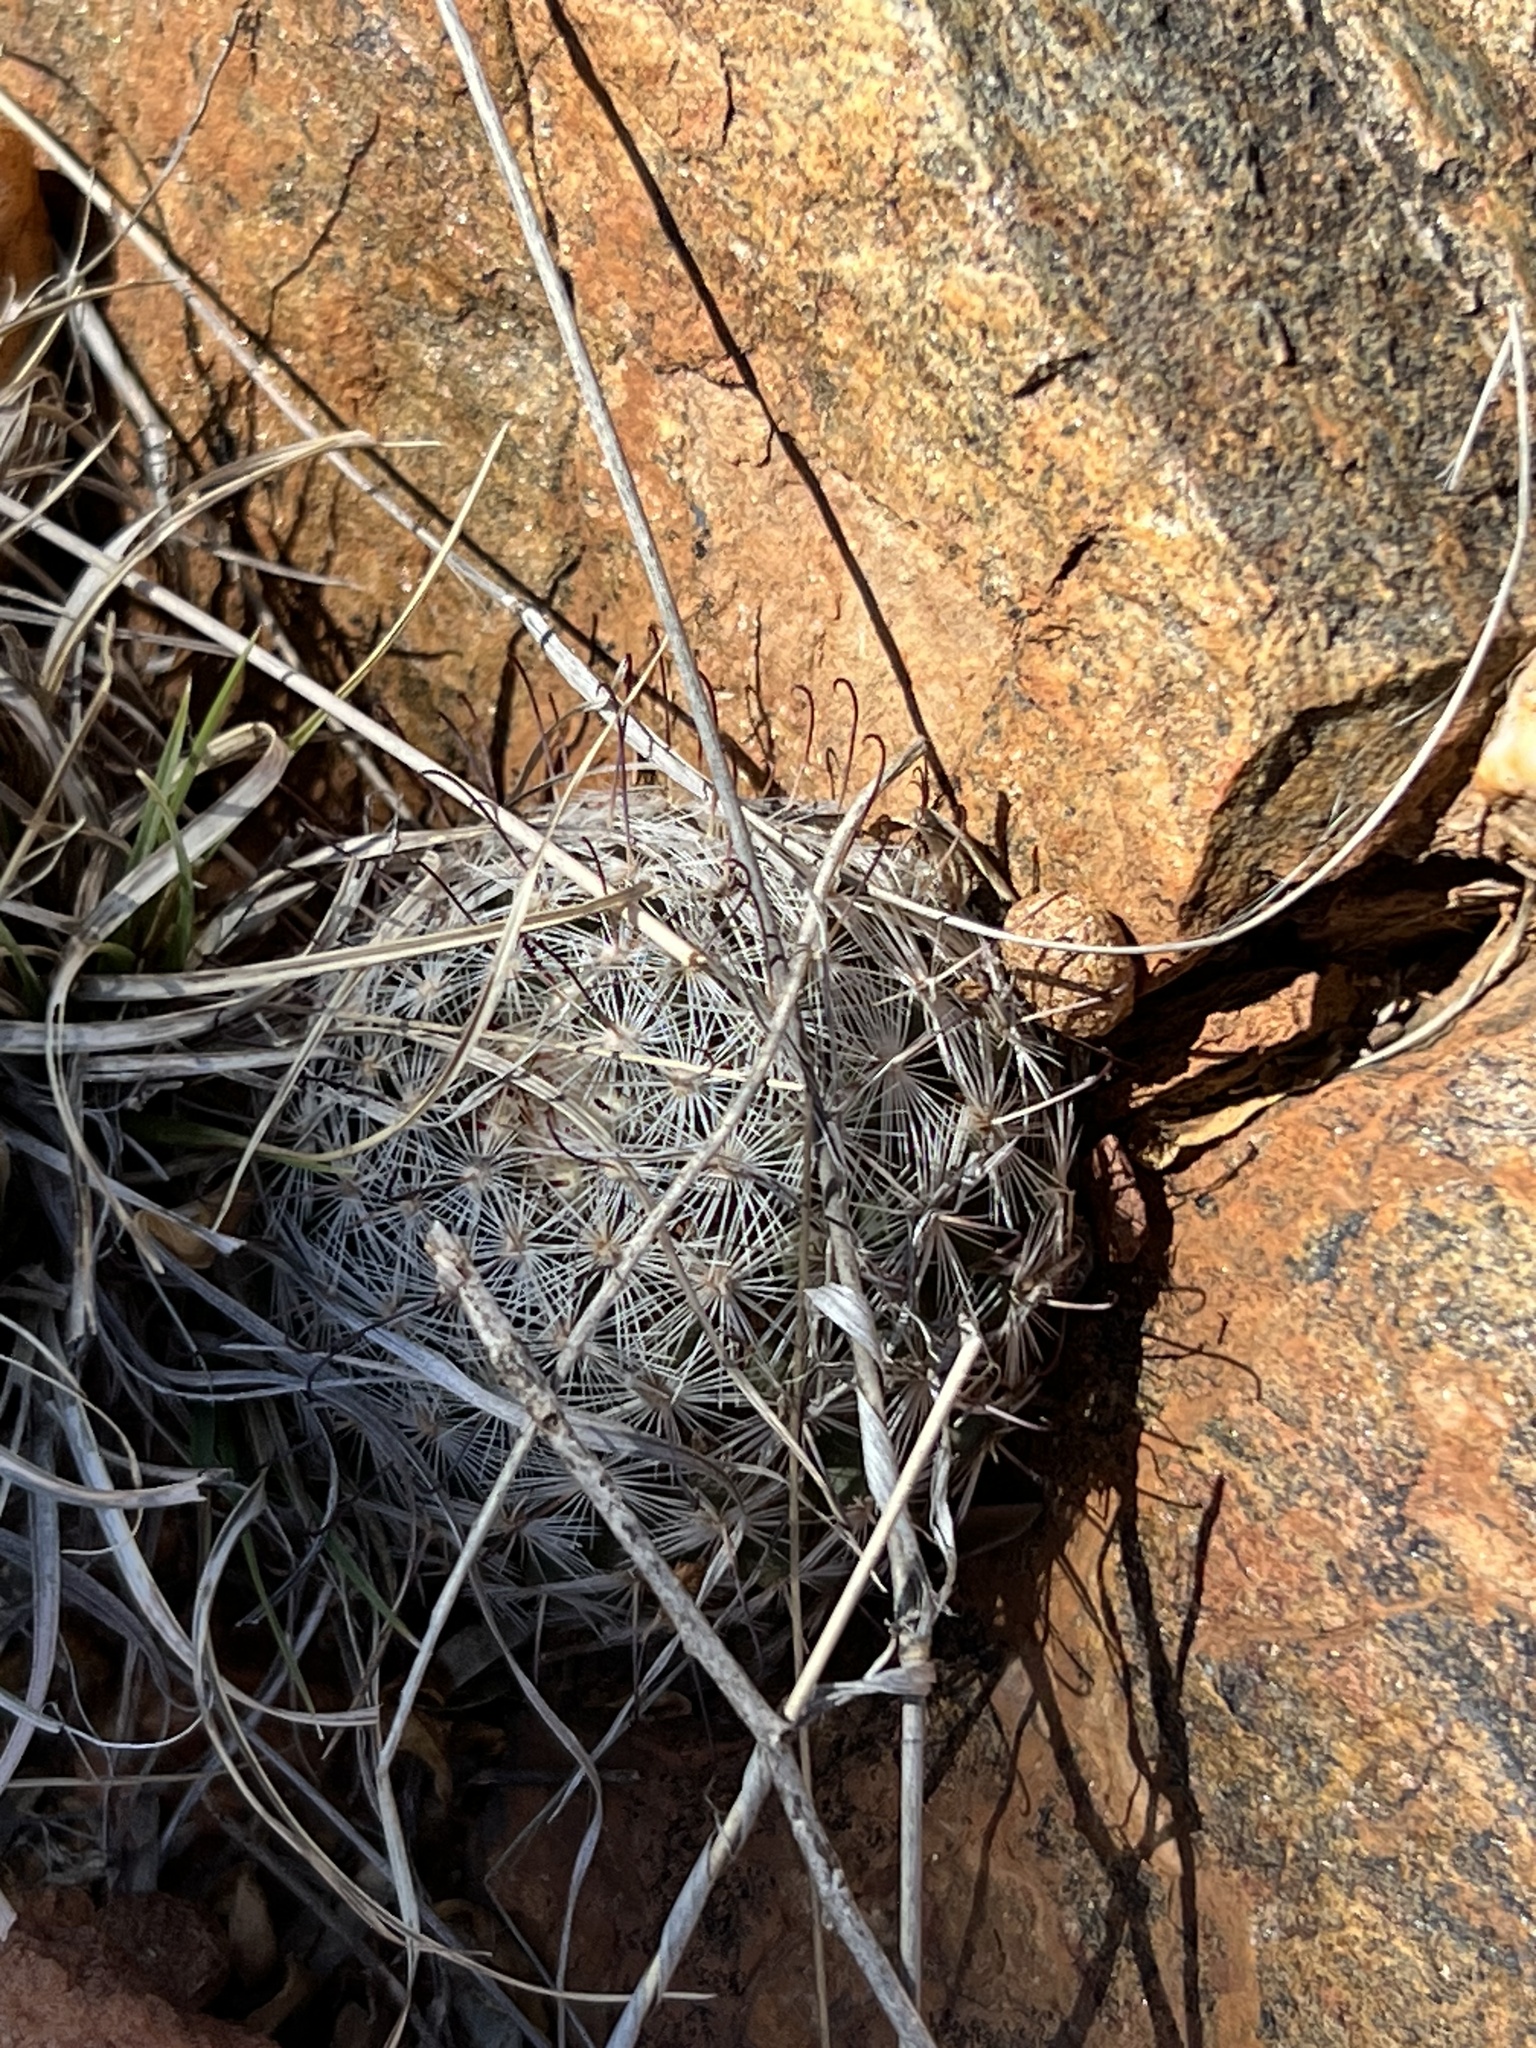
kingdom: Plantae
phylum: Tracheophyta
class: Magnoliopsida
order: Caryophyllales
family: Cactaceae
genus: Cochemiea
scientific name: Cochemiea grahamii
